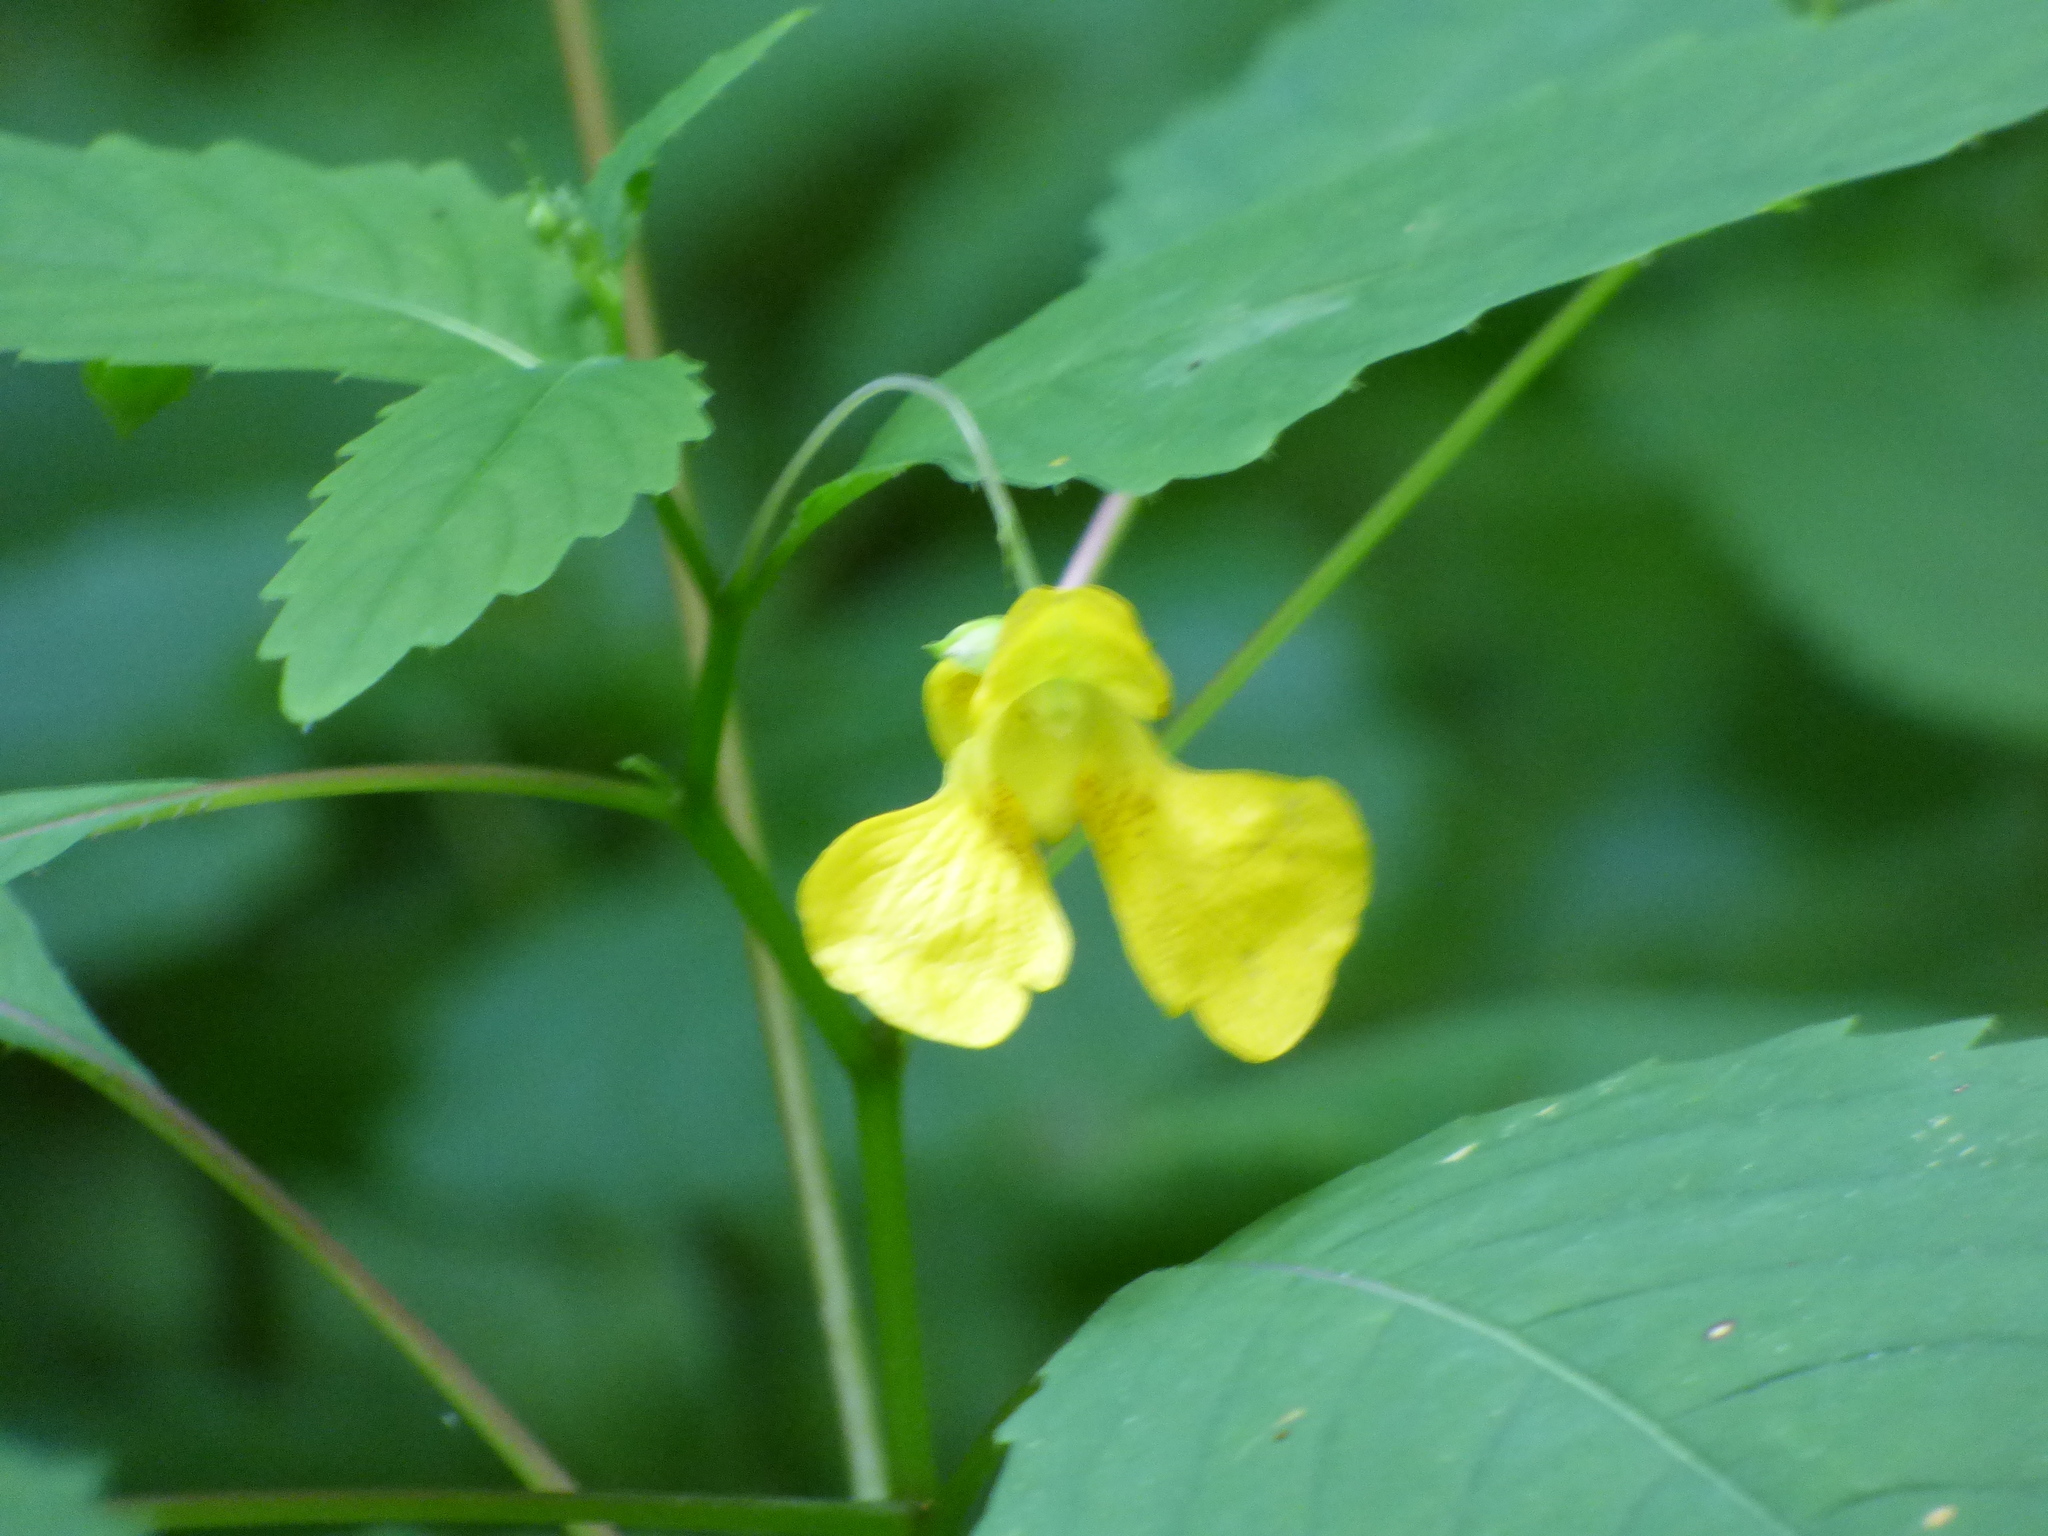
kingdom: Plantae
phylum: Tracheophyta
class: Magnoliopsida
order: Ericales
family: Balsaminaceae
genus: Impatiens
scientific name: Impatiens pallida
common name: Pale snapweed
